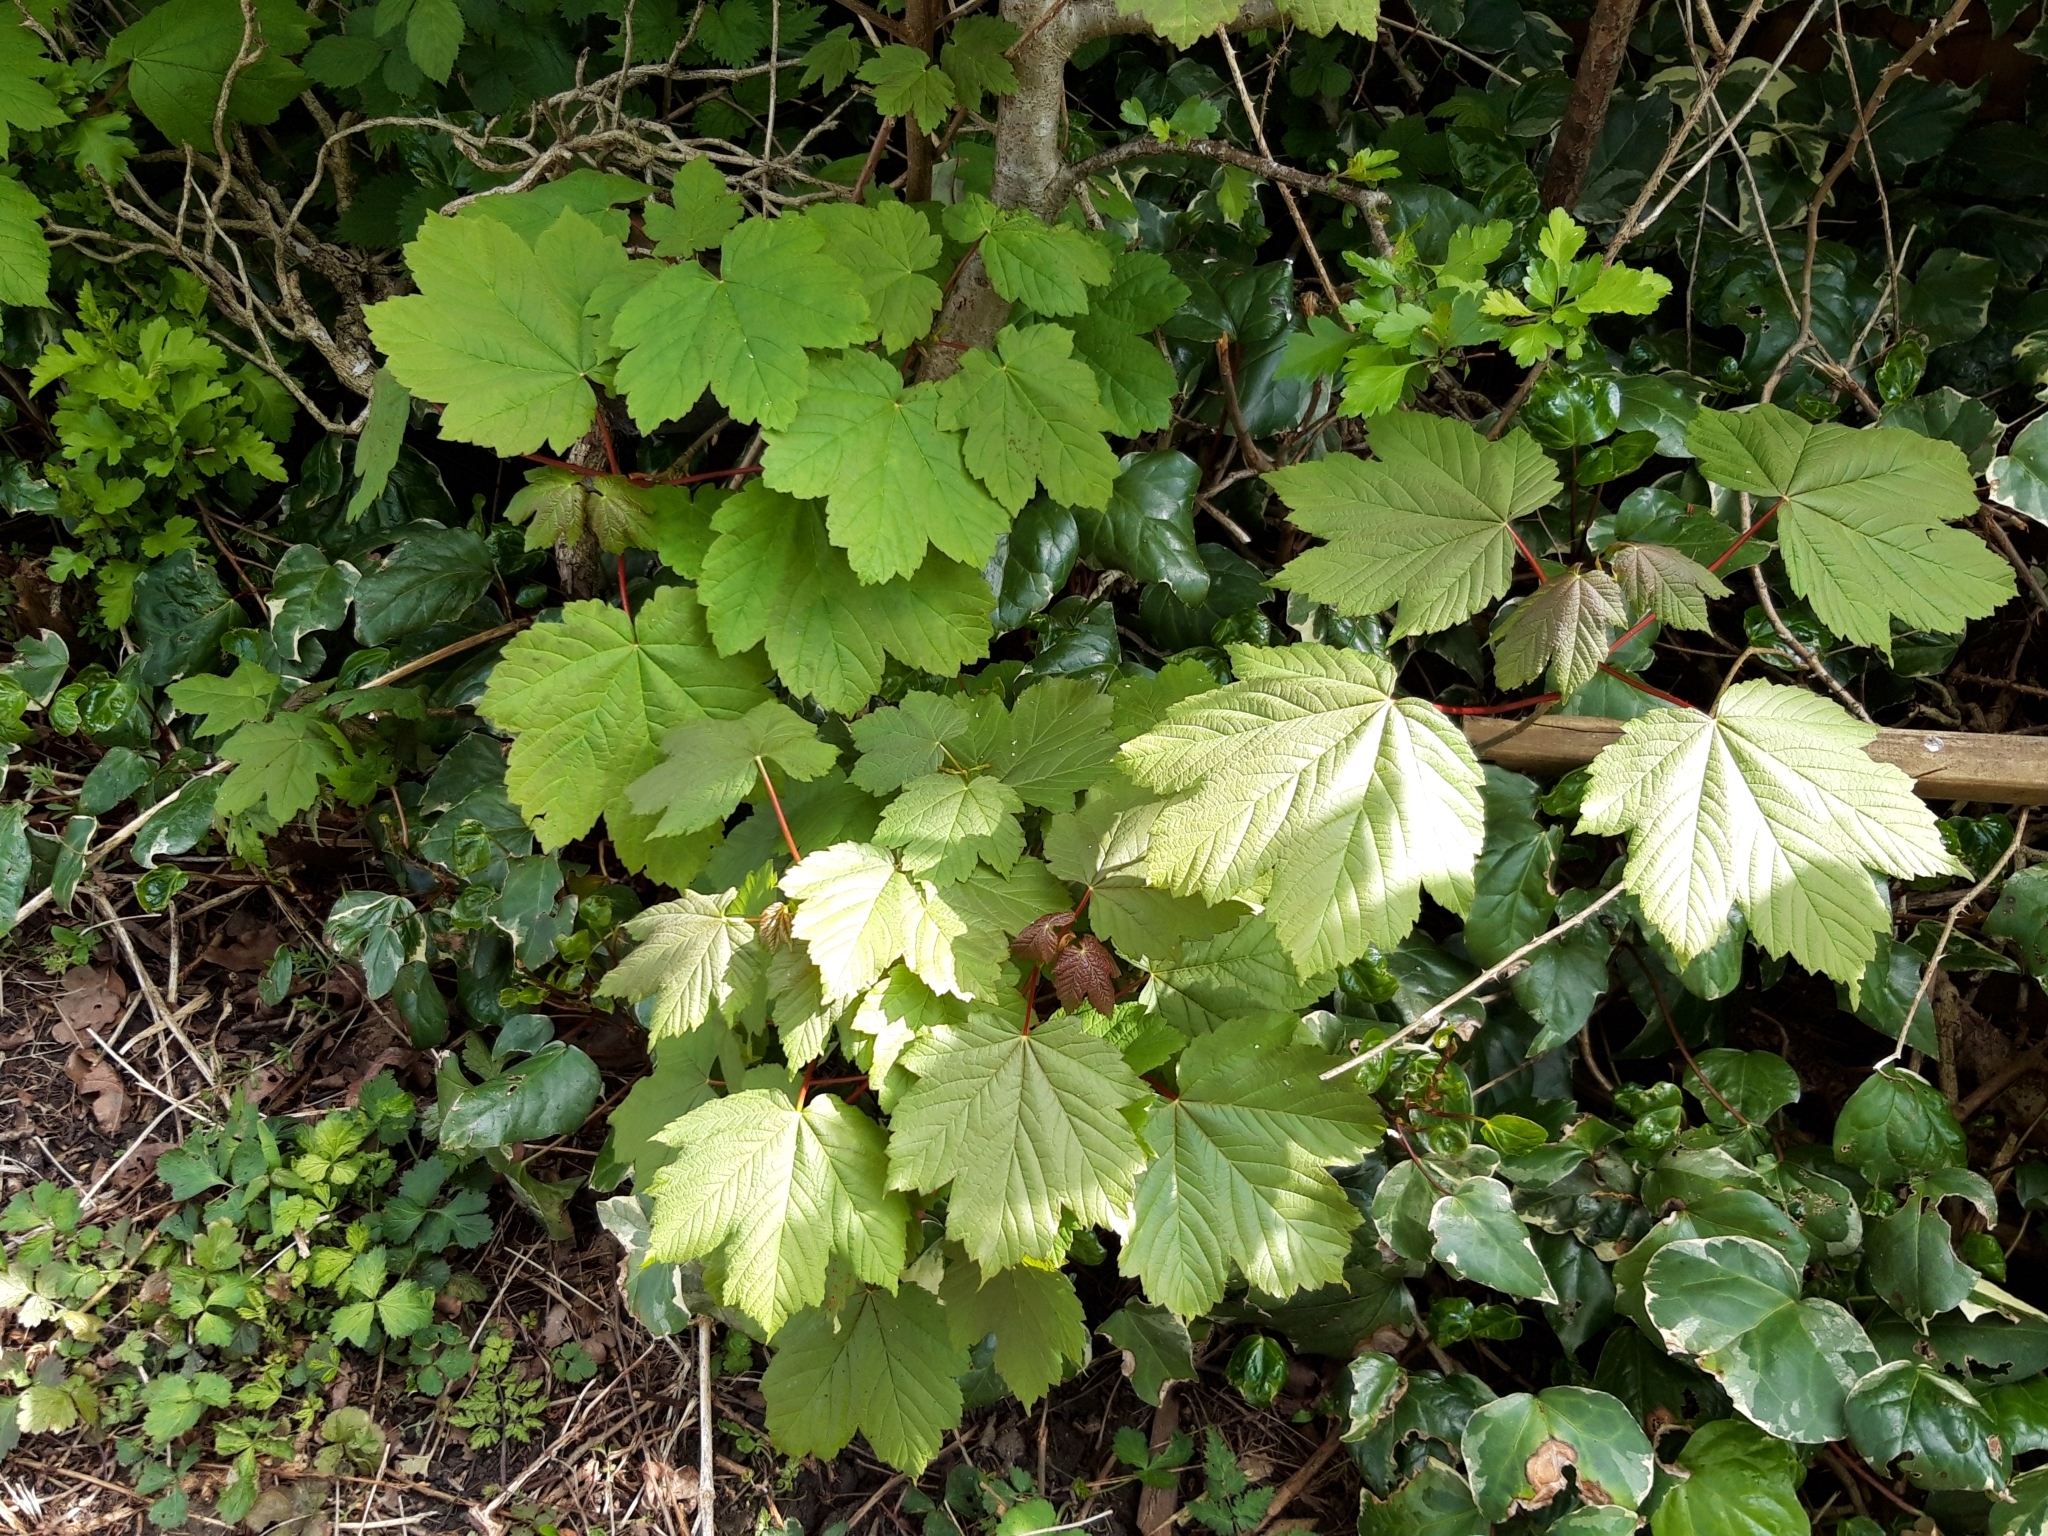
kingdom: Plantae
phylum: Tracheophyta
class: Magnoliopsida
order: Sapindales
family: Sapindaceae
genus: Acer
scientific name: Acer pseudoplatanus
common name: Sycamore
